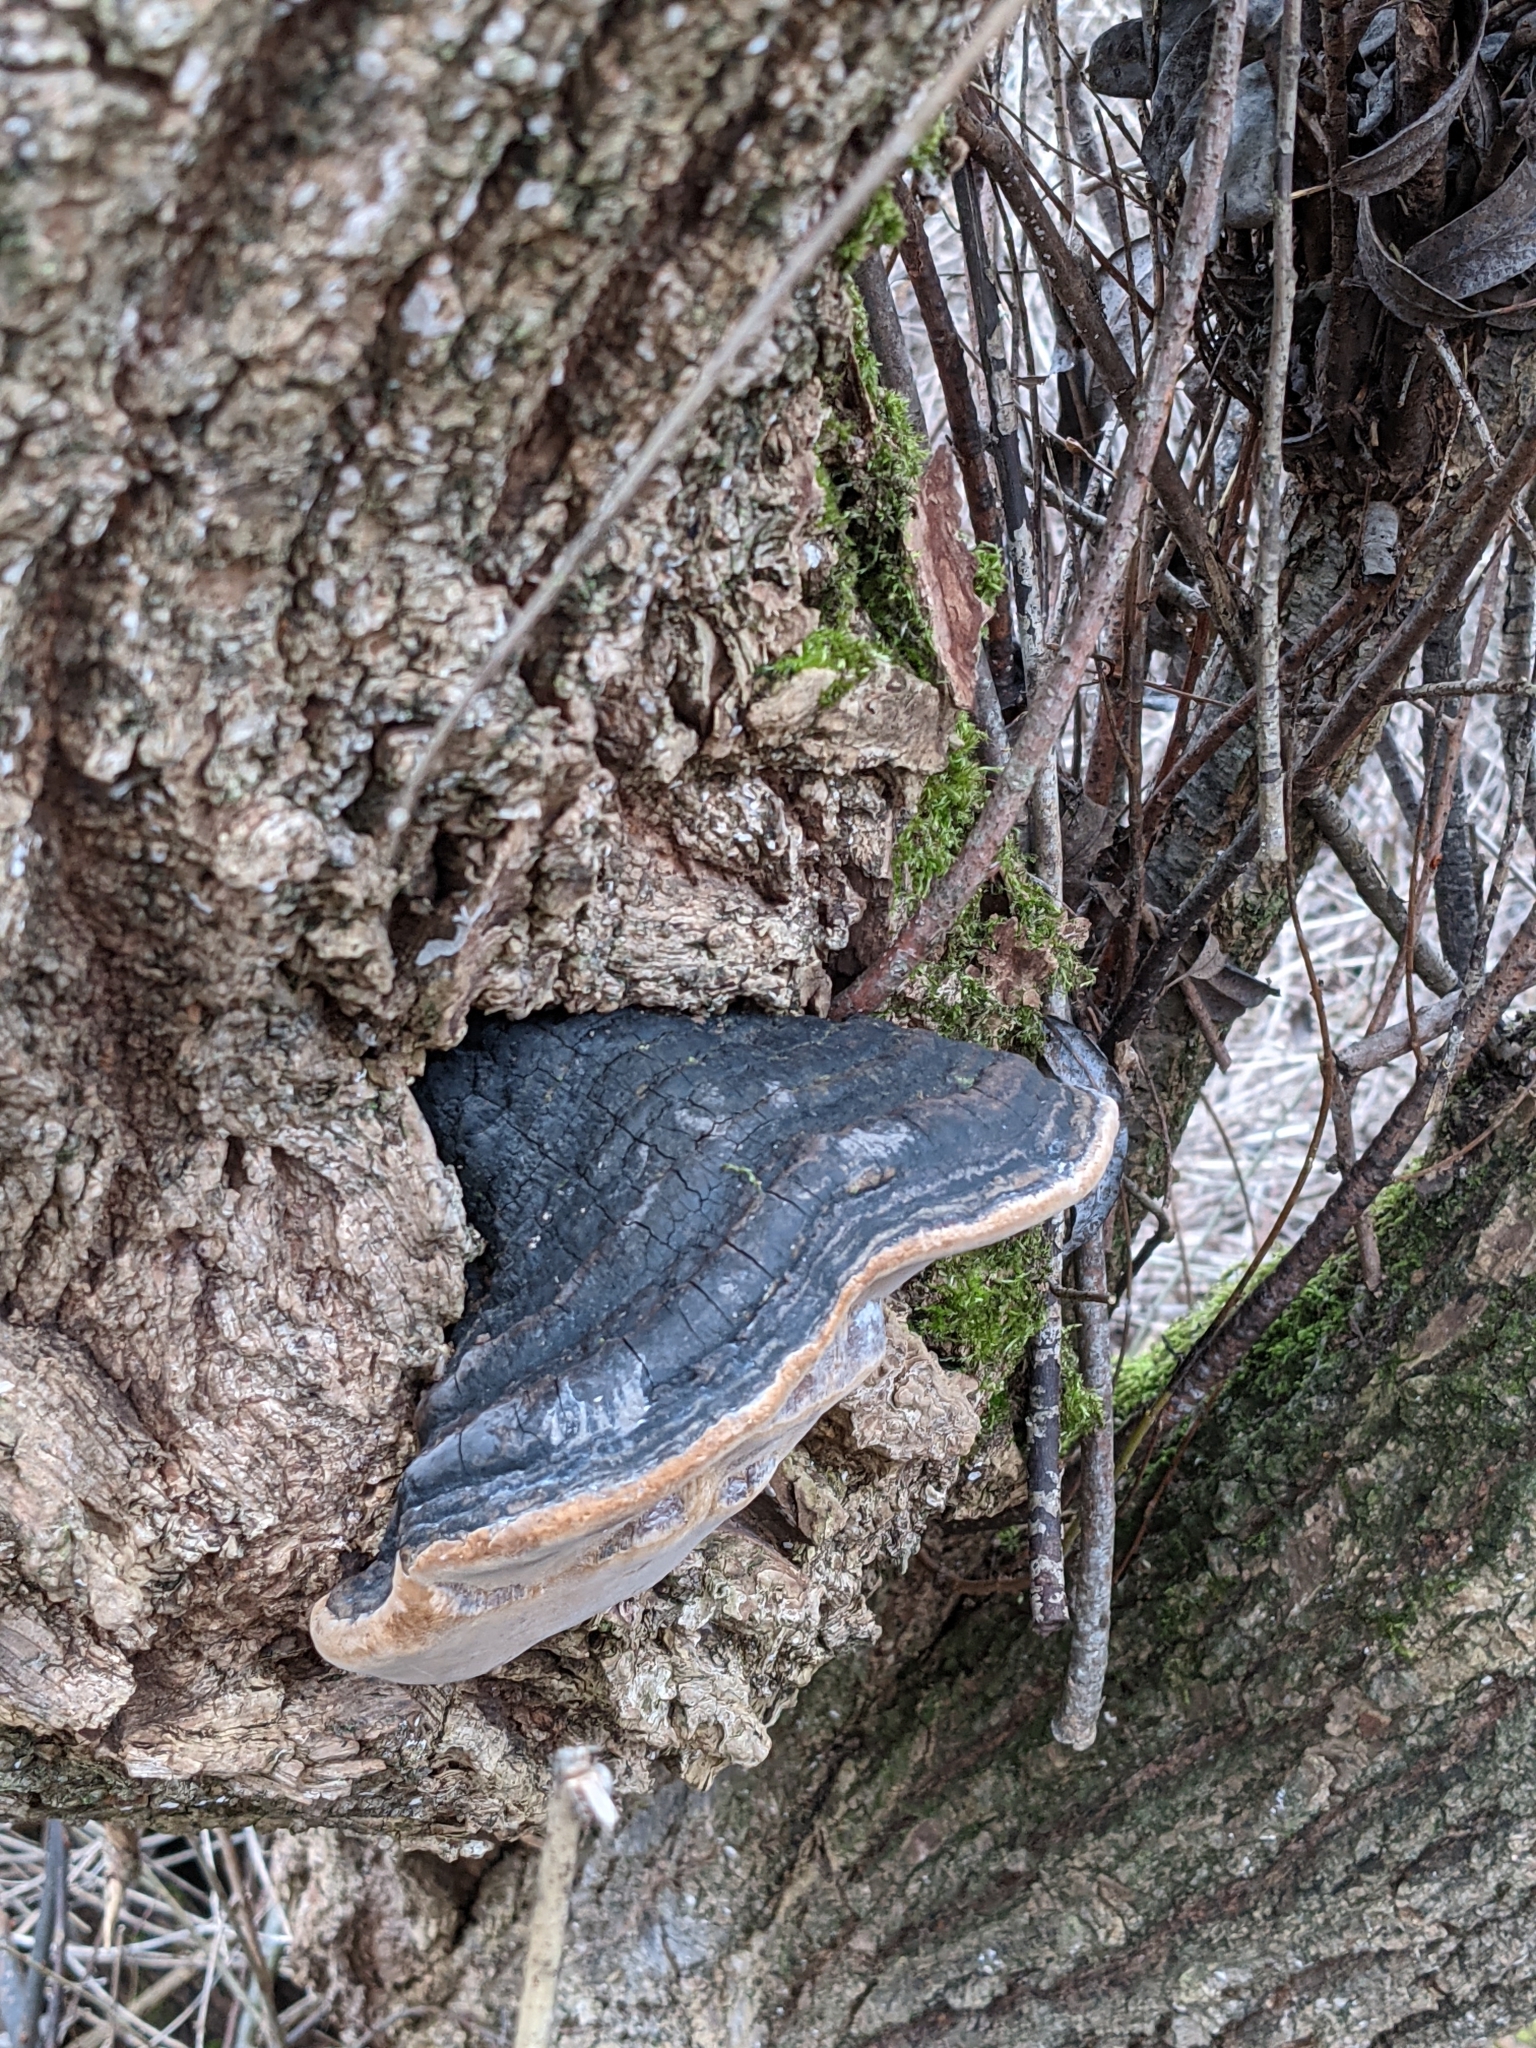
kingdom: Fungi
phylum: Basidiomycota
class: Agaricomycetes
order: Polyporales
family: Fomitopsidaceae
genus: Fomitopsis
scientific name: Fomitopsis mounceae
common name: Northern red belt
